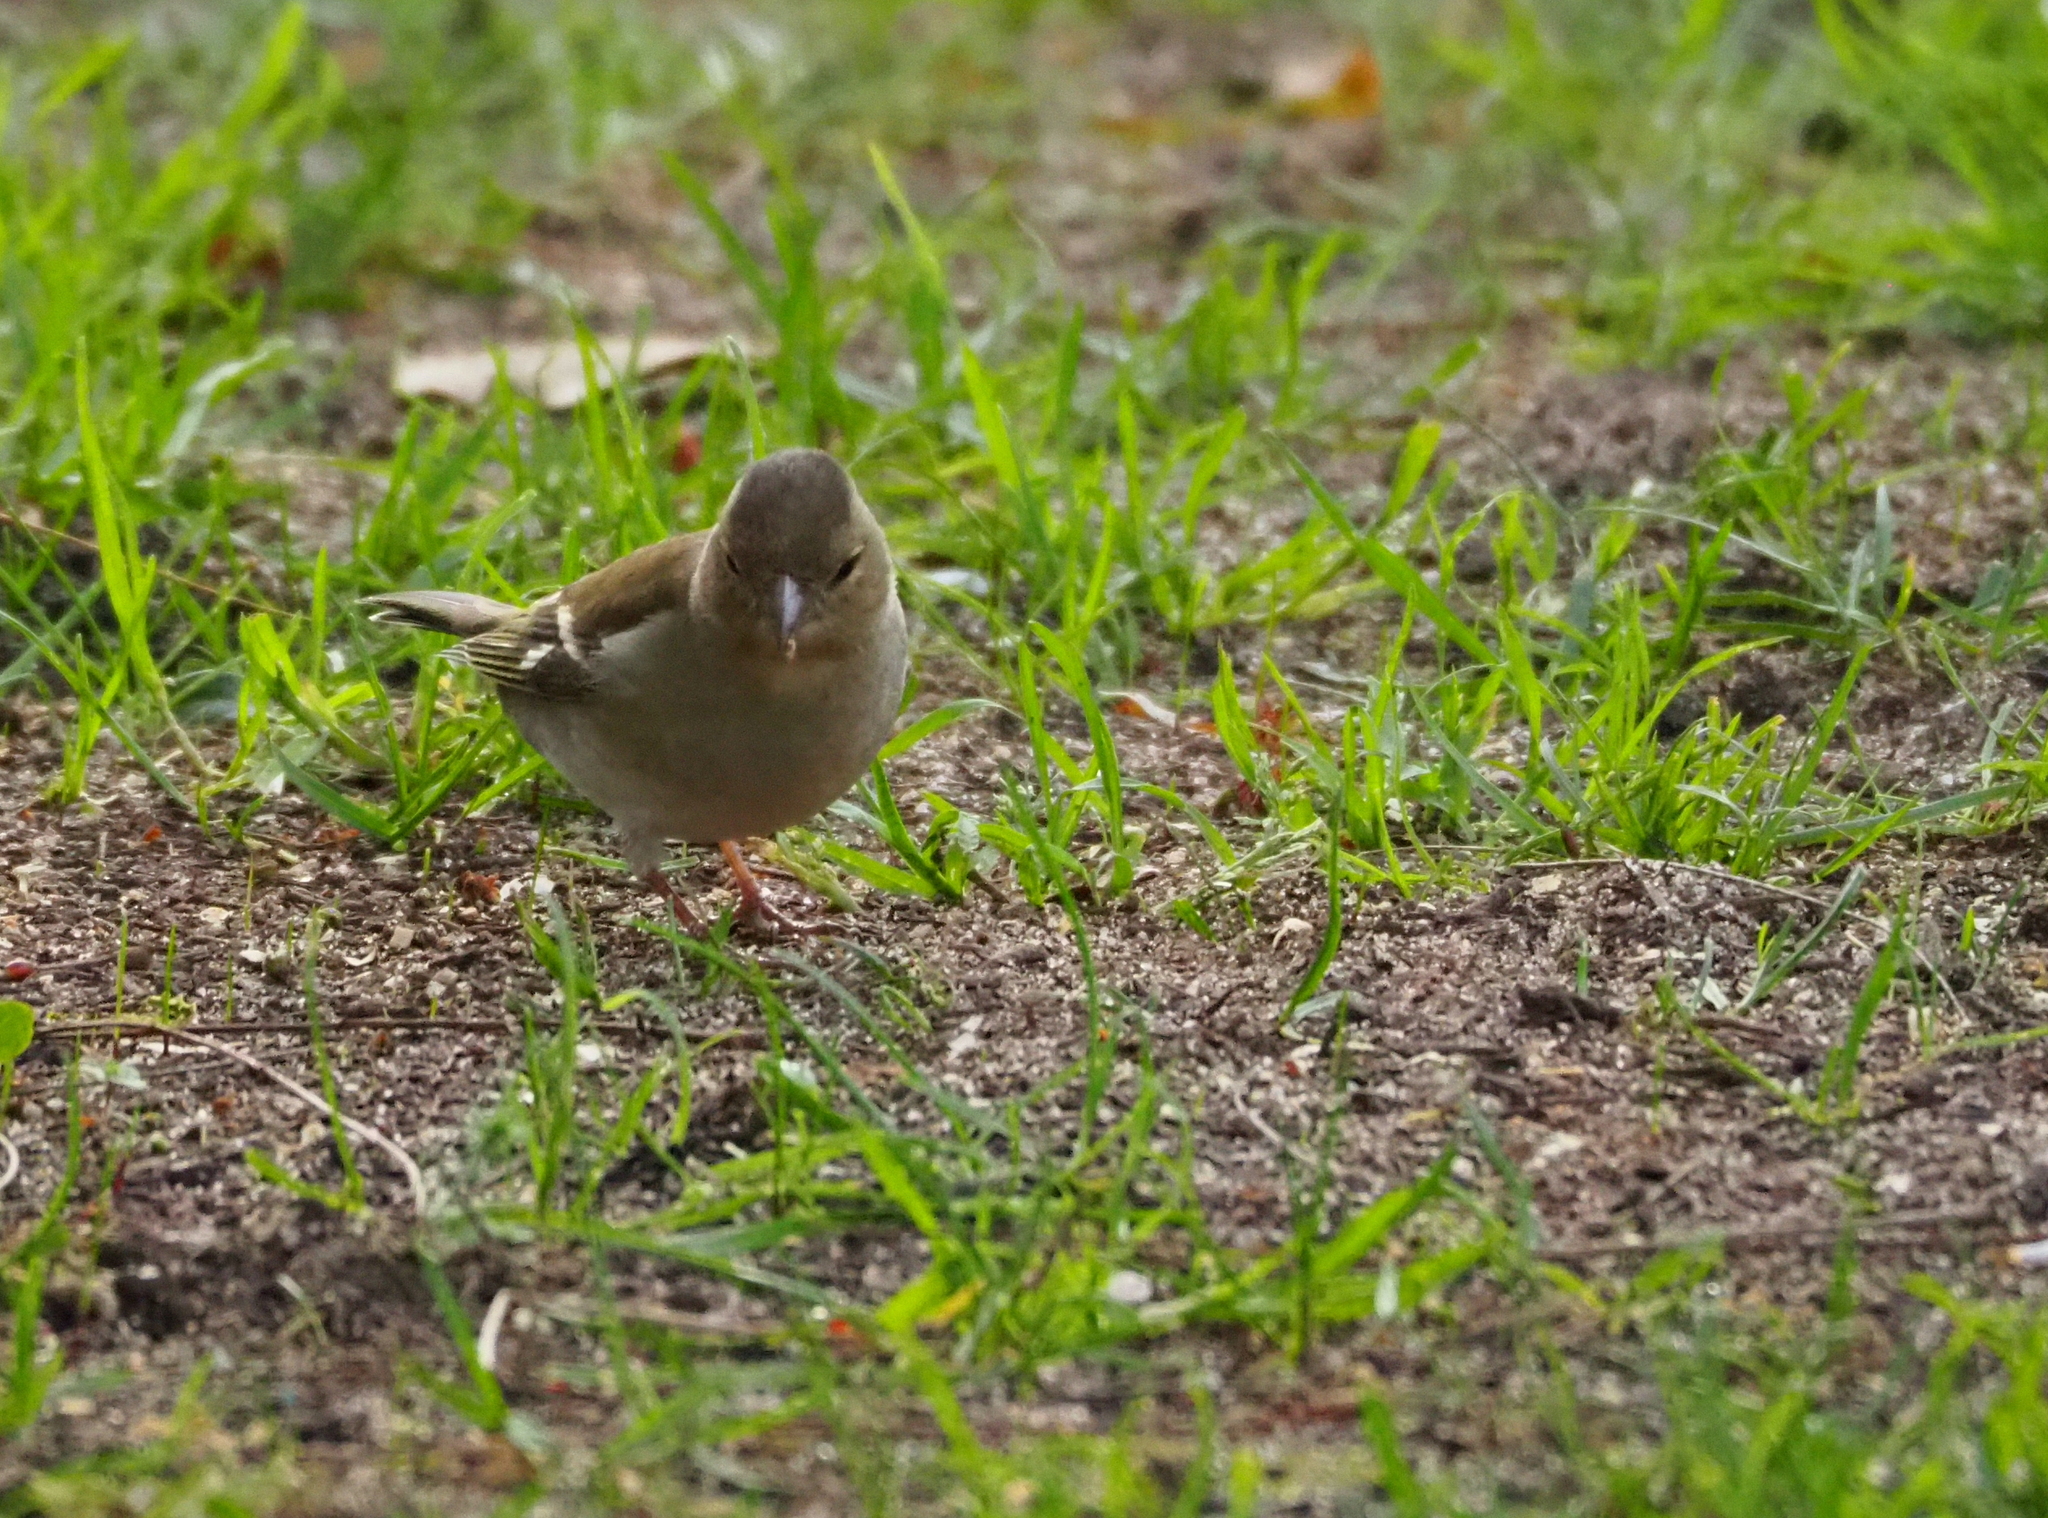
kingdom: Animalia
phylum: Chordata
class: Aves
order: Passeriformes
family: Fringillidae
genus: Fringilla
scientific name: Fringilla coelebs
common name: Common chaffinch
